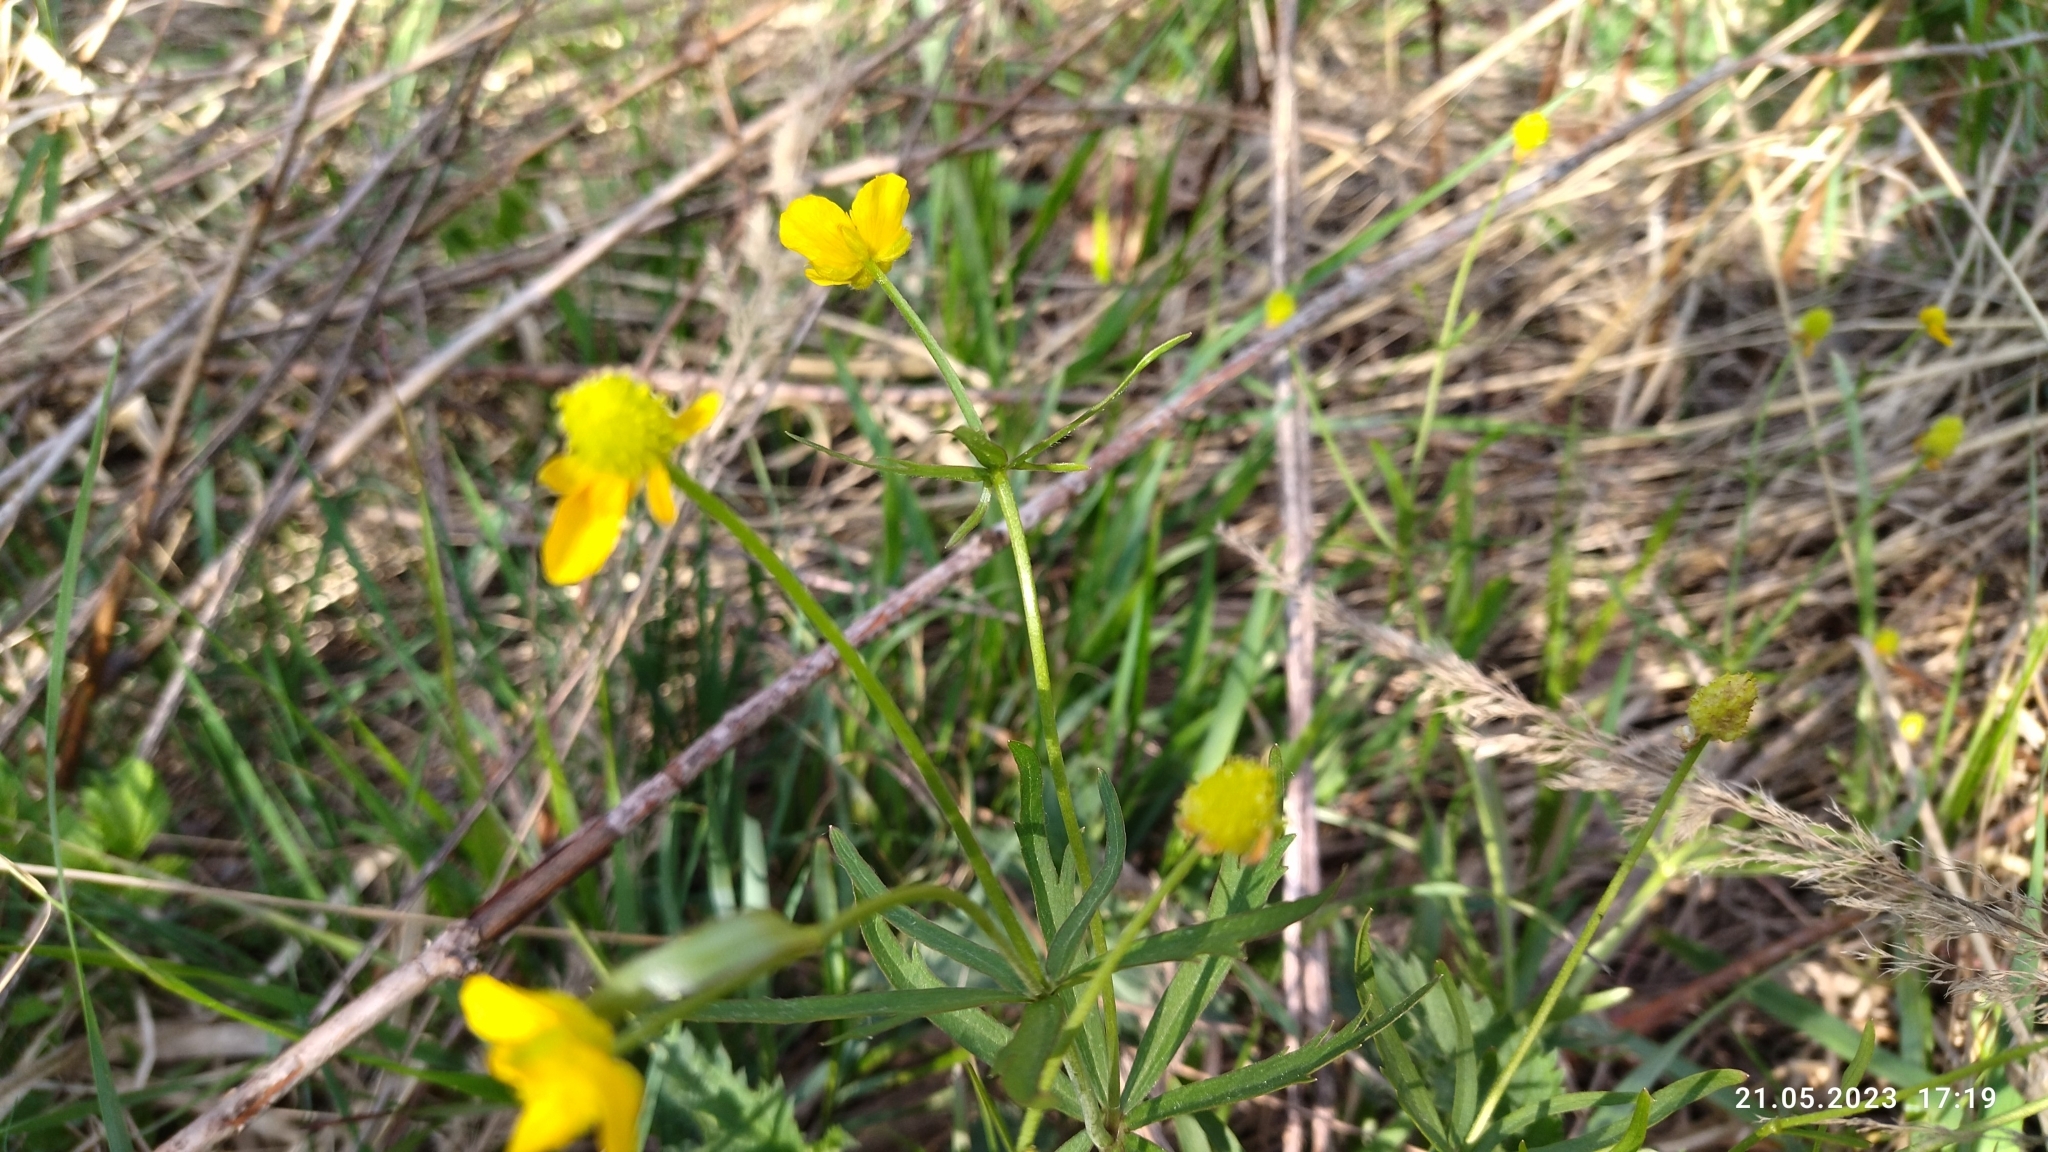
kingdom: Plantae
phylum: Tracheophyta
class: Magnoliopsida
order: Ranunculales
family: Ranunculaceae
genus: Ranunculus
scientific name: Ranunculus auricomus
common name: Goldilocks buttercup
